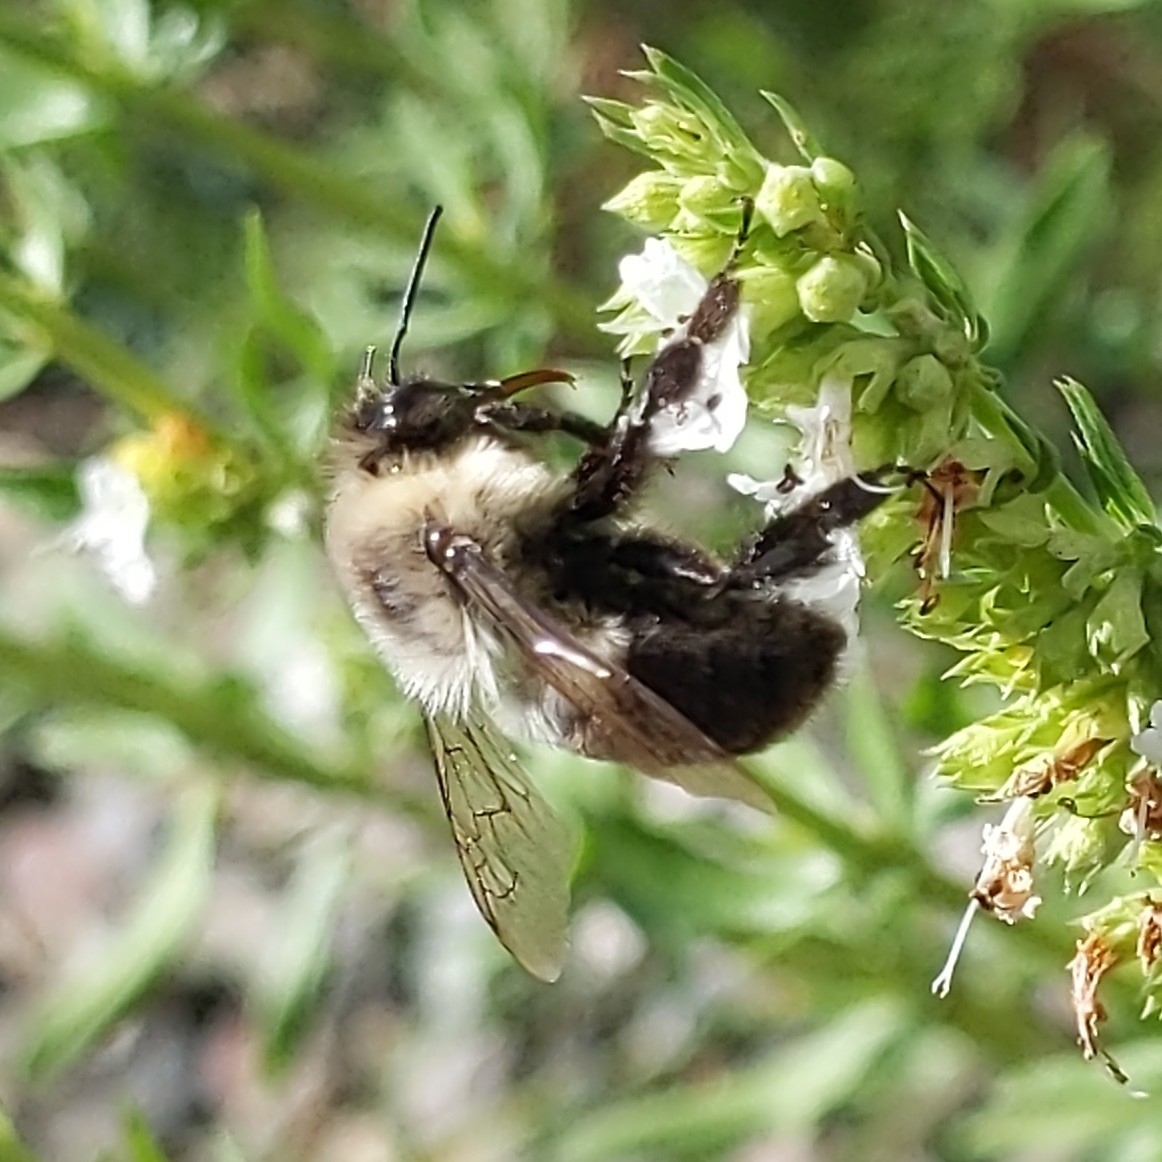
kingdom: Animalia
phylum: Arthropoda
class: Insecta
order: Hymenoptera
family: Apidae
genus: Bombus
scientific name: Bombus impatiens
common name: Common eastern bumble bee
